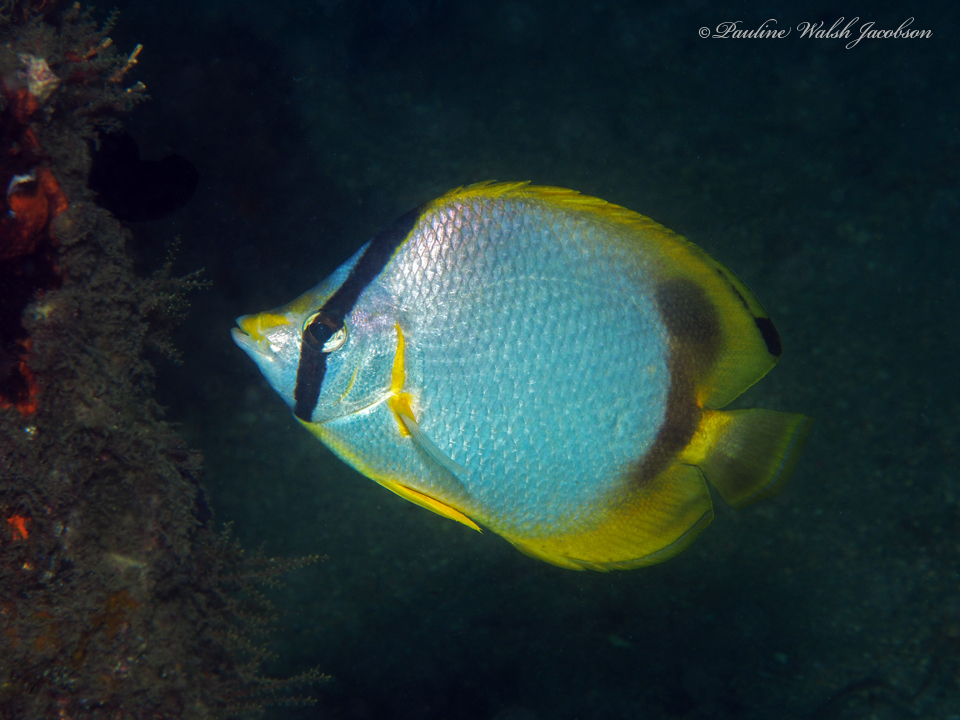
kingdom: Animalia
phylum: Chordata
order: Perciformes
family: Chaetodontidae
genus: Chaetodon
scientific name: Chaetodon ocellatus
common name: Spotfin butterflyfish
